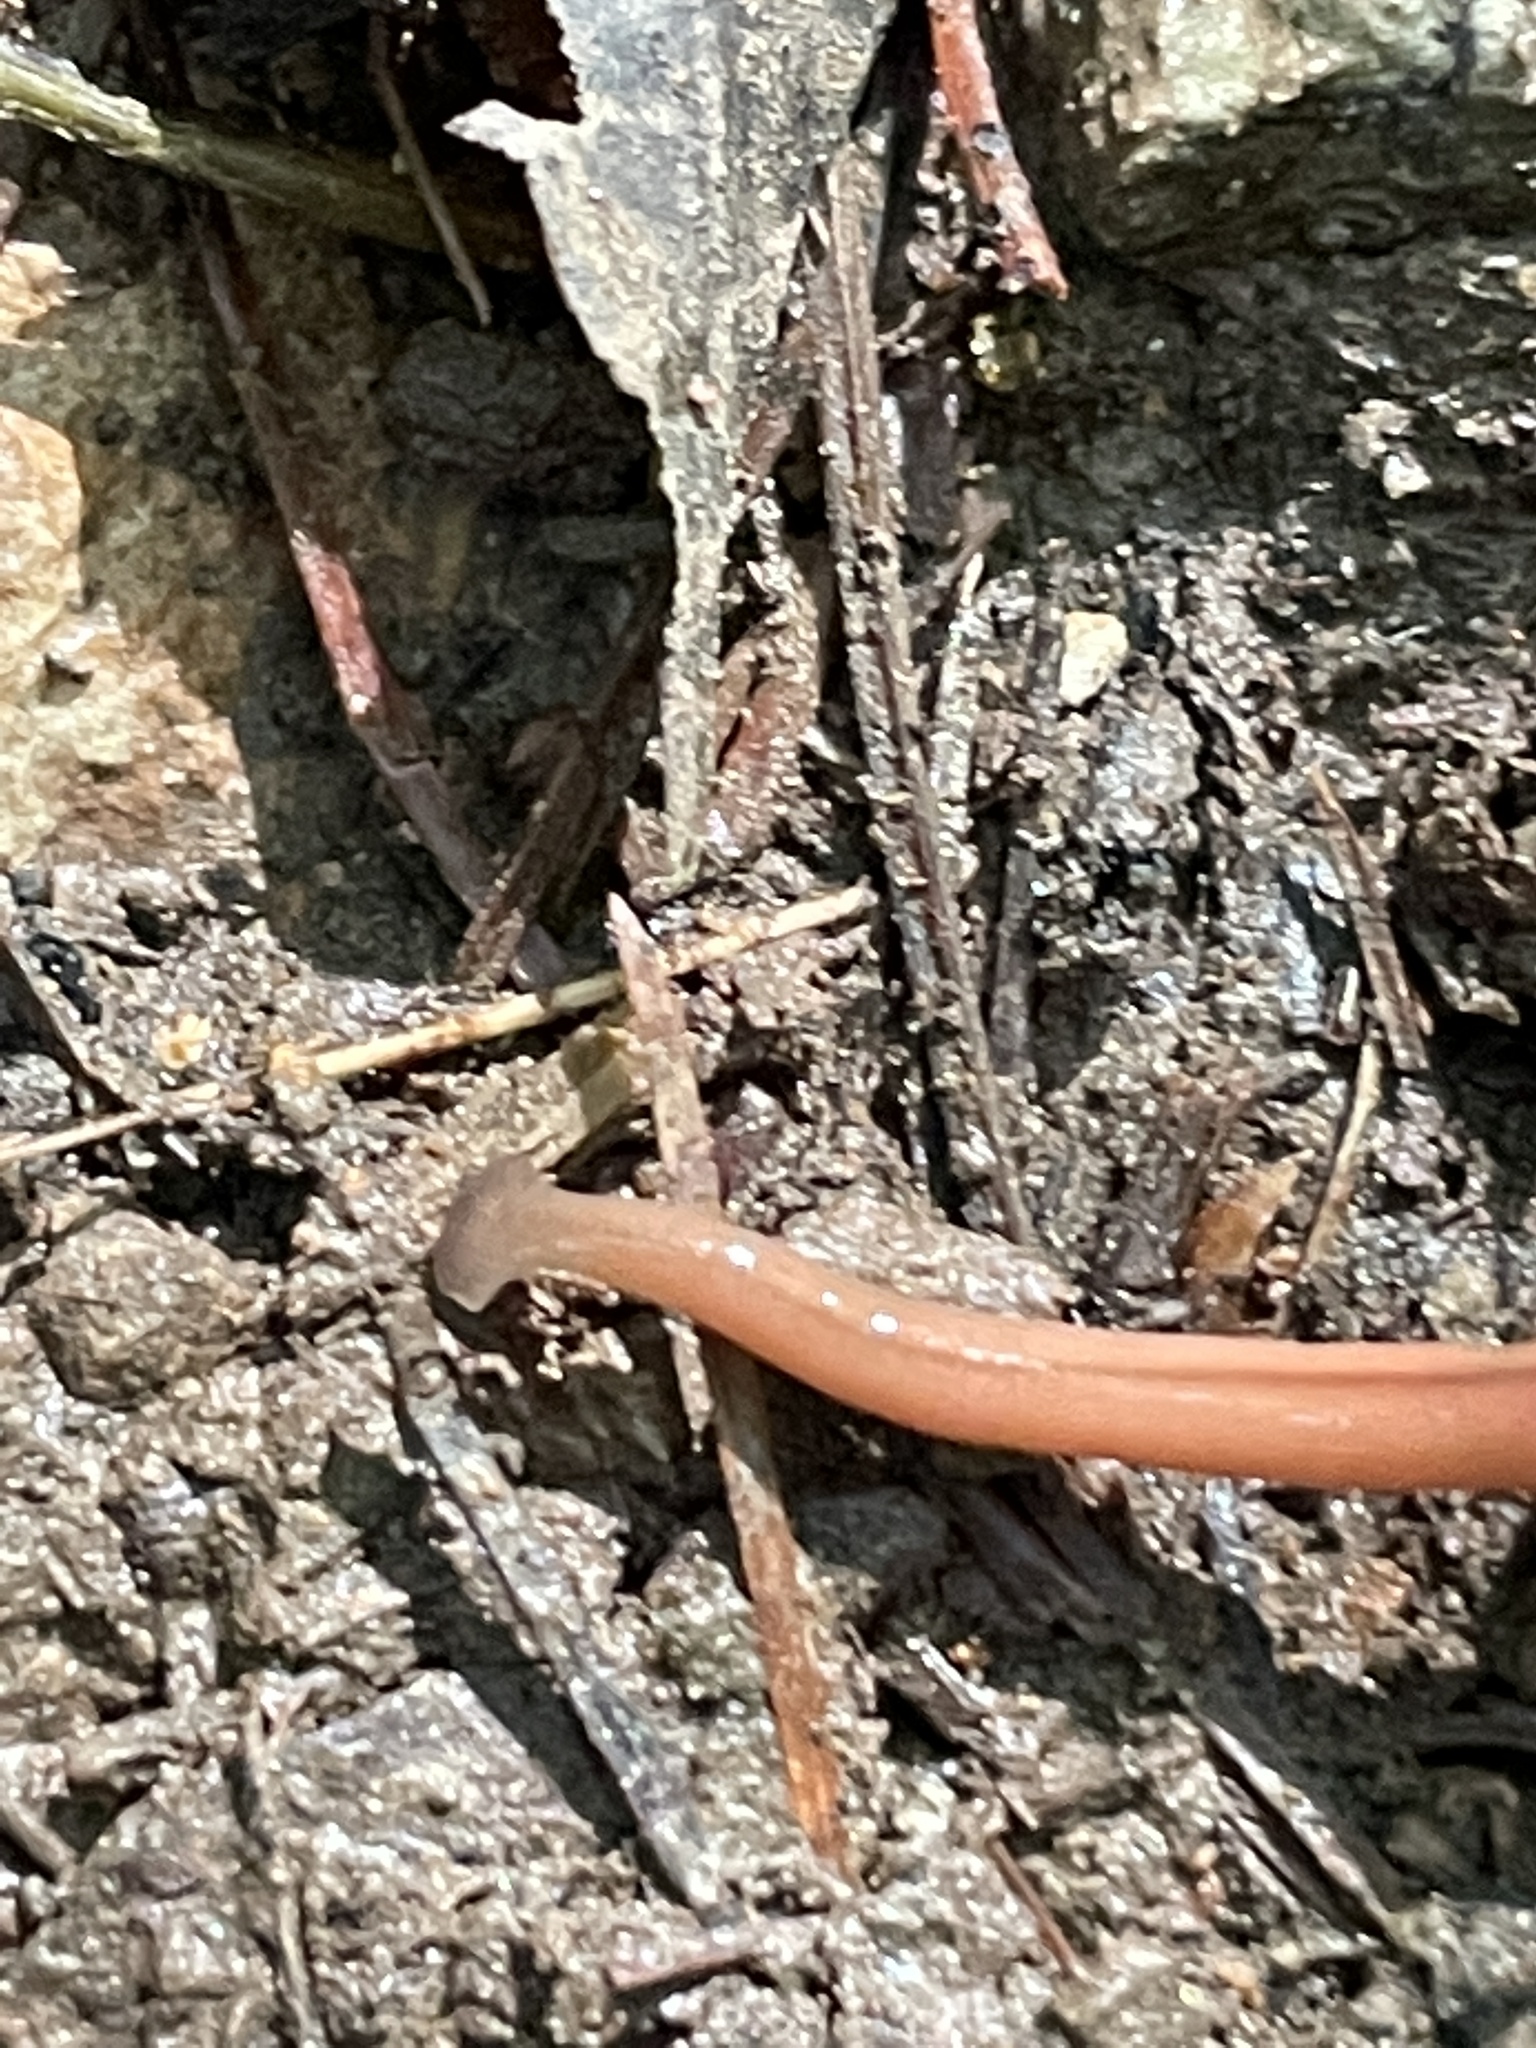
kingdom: Animalia
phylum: Platyhelminthes
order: Tricladida
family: Geoplanidae
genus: Bipalium
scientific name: Bipalium adventitium
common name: Land planarian
